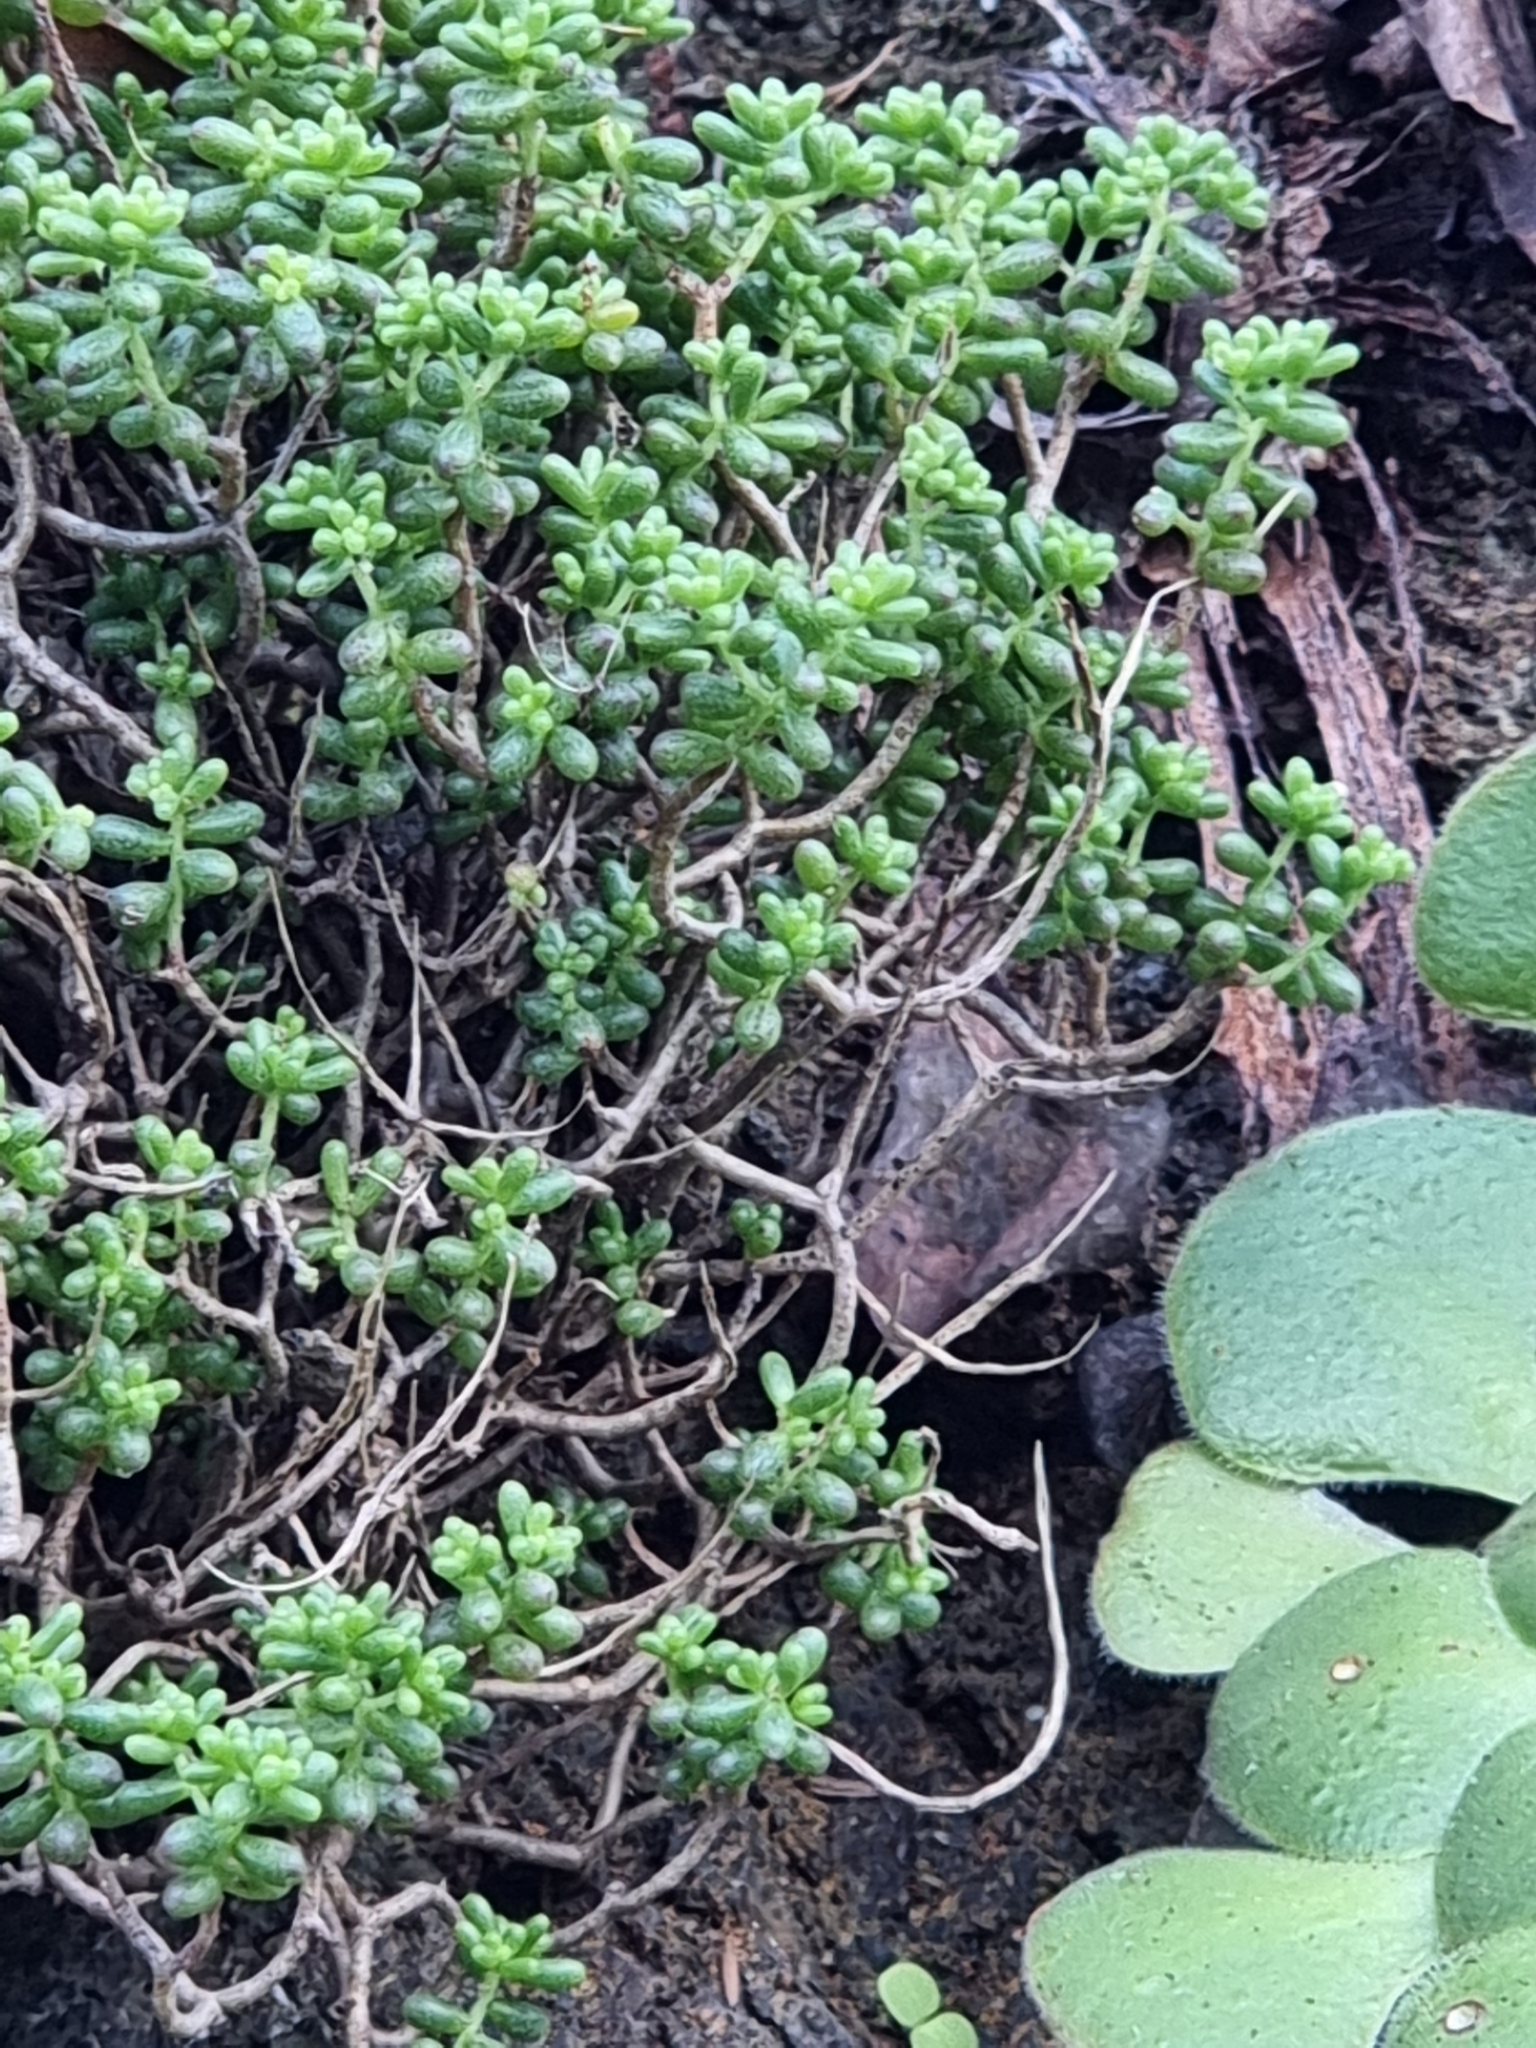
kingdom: Plantae
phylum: Tracheophyta
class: Magnoliopsida
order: Saxifragales
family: Crassulaceae
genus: Sedum
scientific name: Sedum brissemoretii
